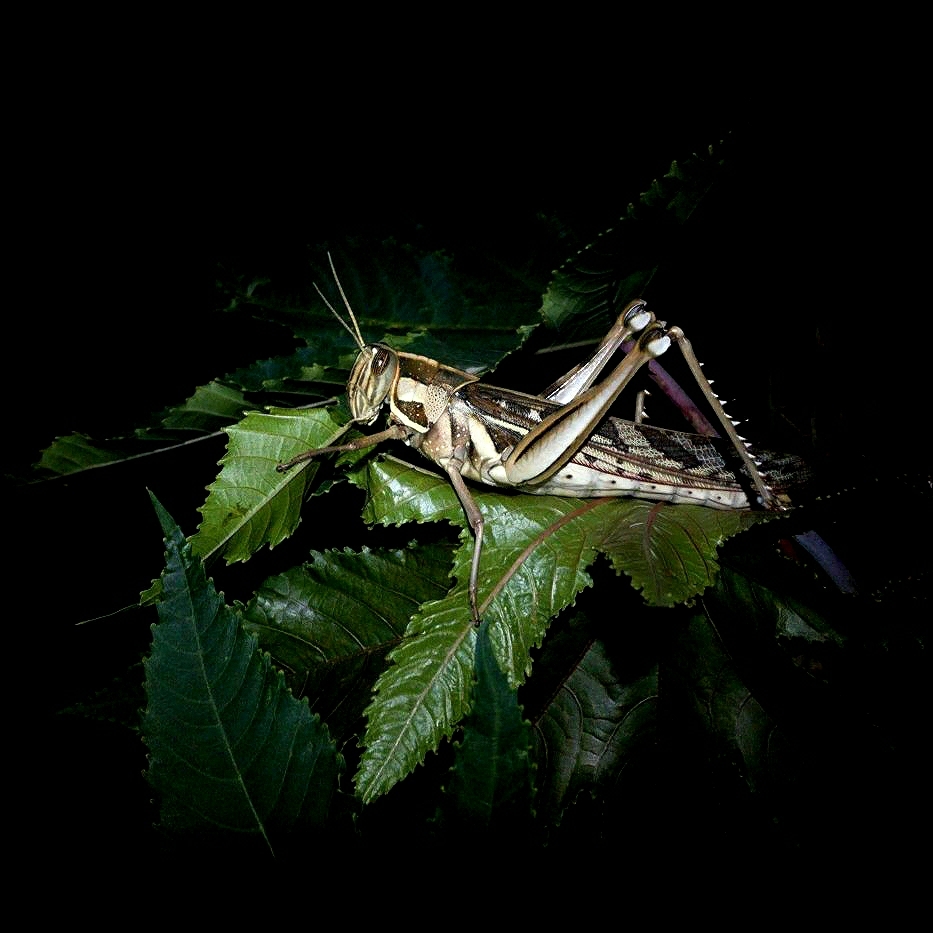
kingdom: Animalia
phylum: Arthropoda
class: Insecta
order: Orthoptera
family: Acrididae
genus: Cyrtacanthacris
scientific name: Cyrtacanthacris tatarica
